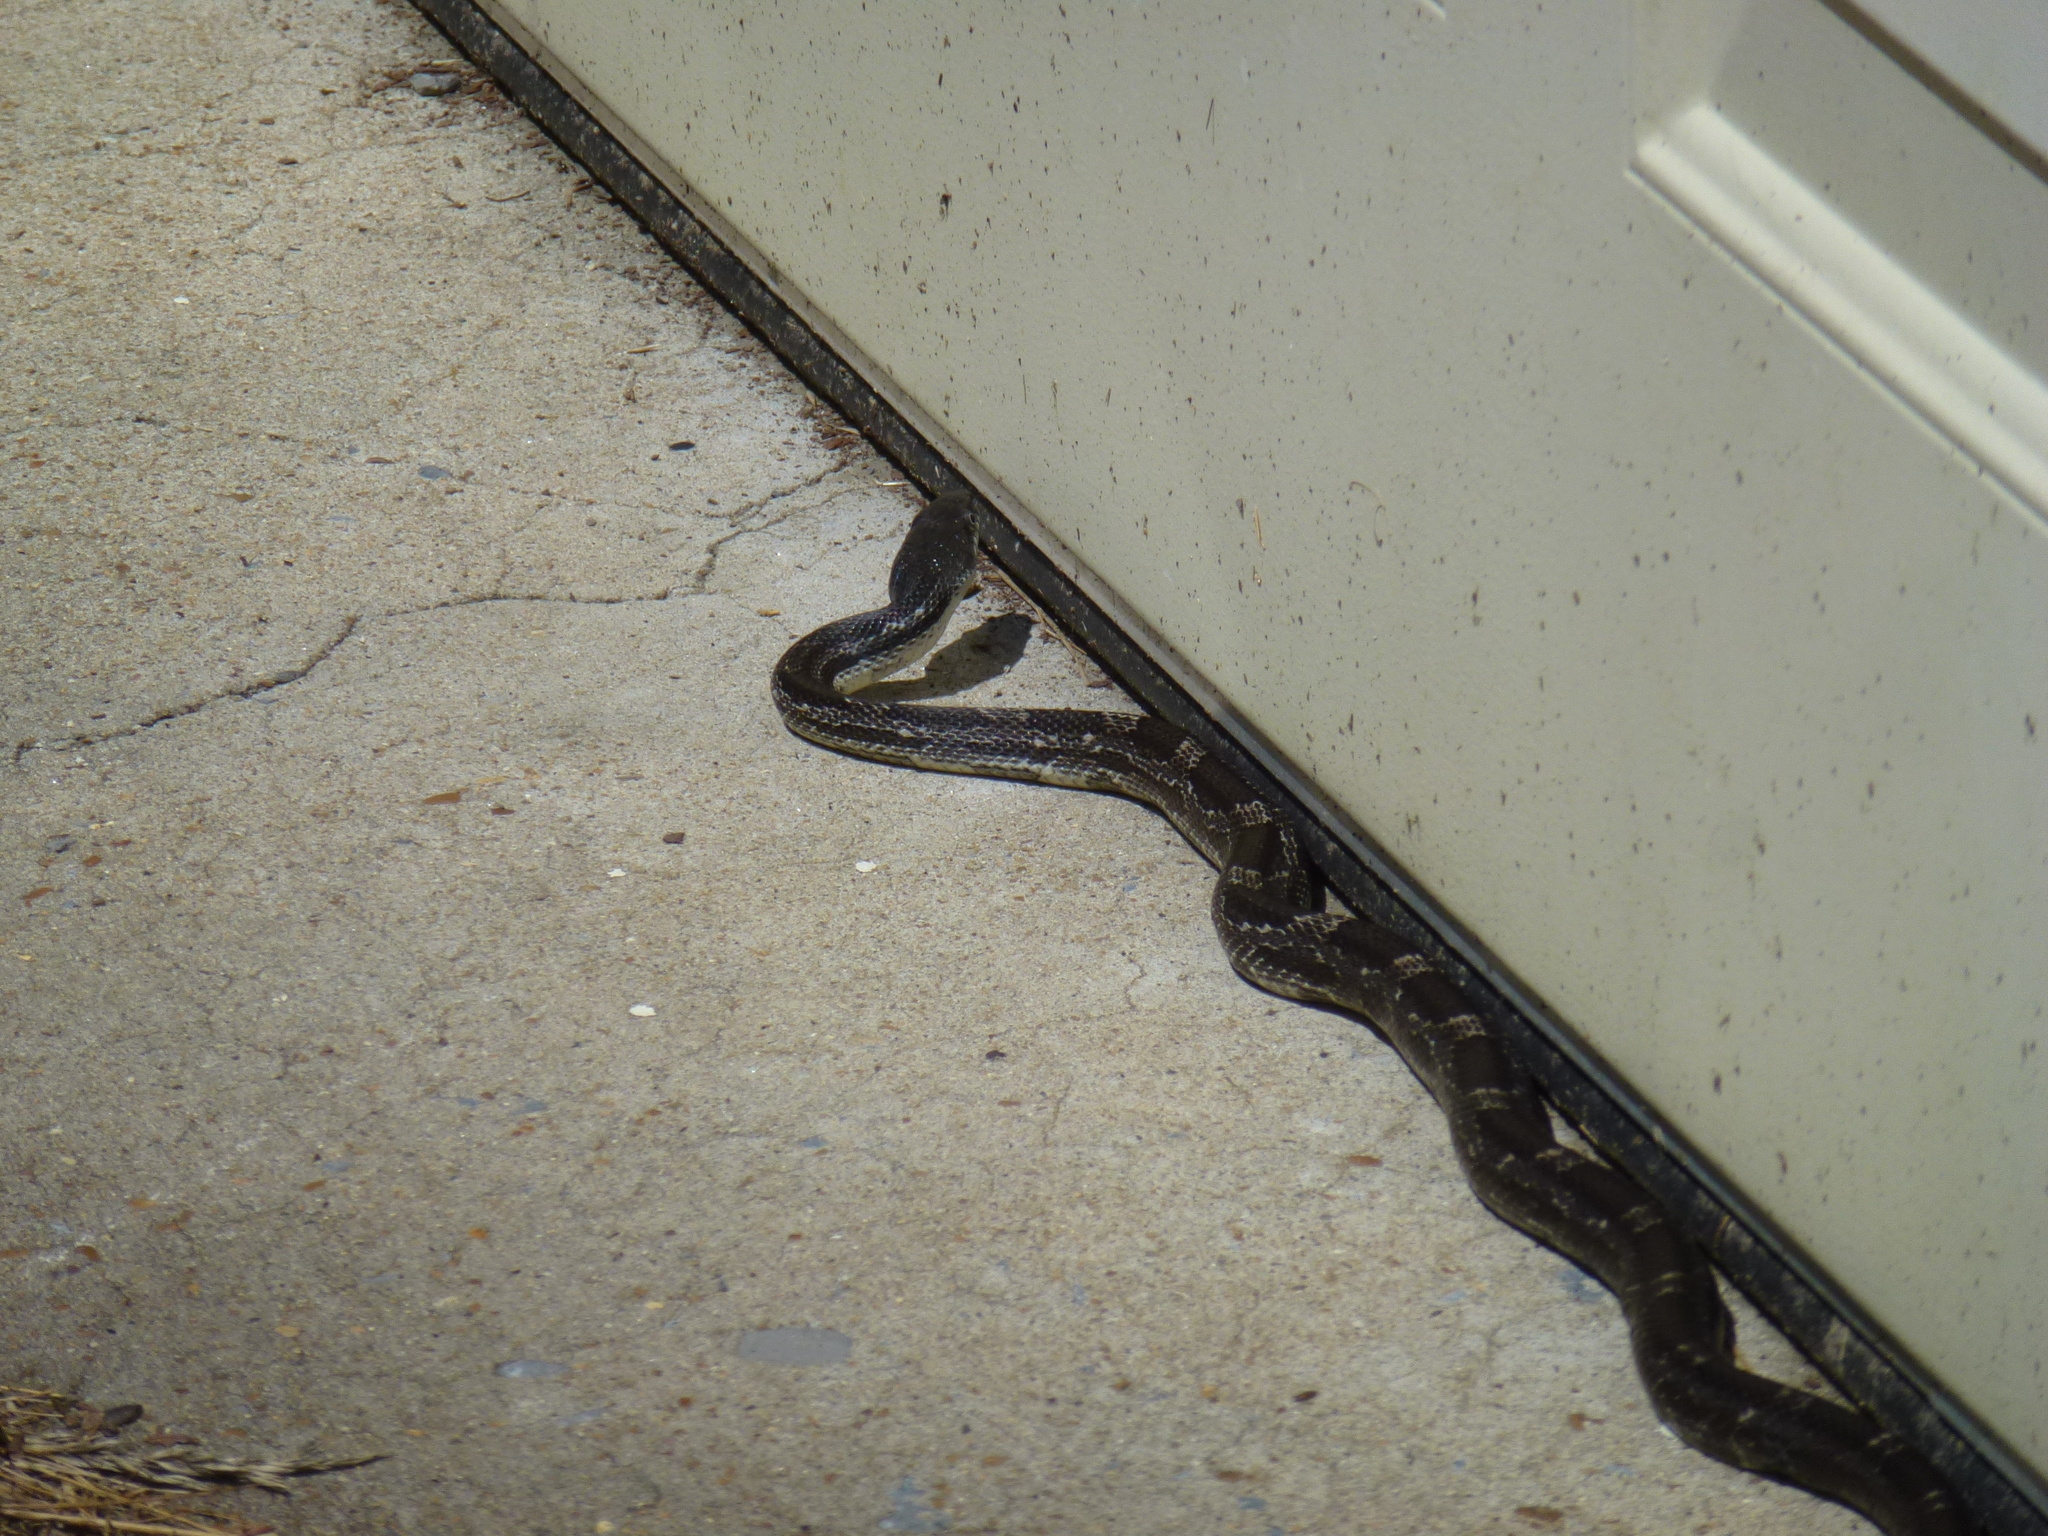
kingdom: Animalia
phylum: Chordata
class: Squamata
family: Colubridae
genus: Pantherophis
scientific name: Pantherophis spiloides
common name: Gray rat snake
